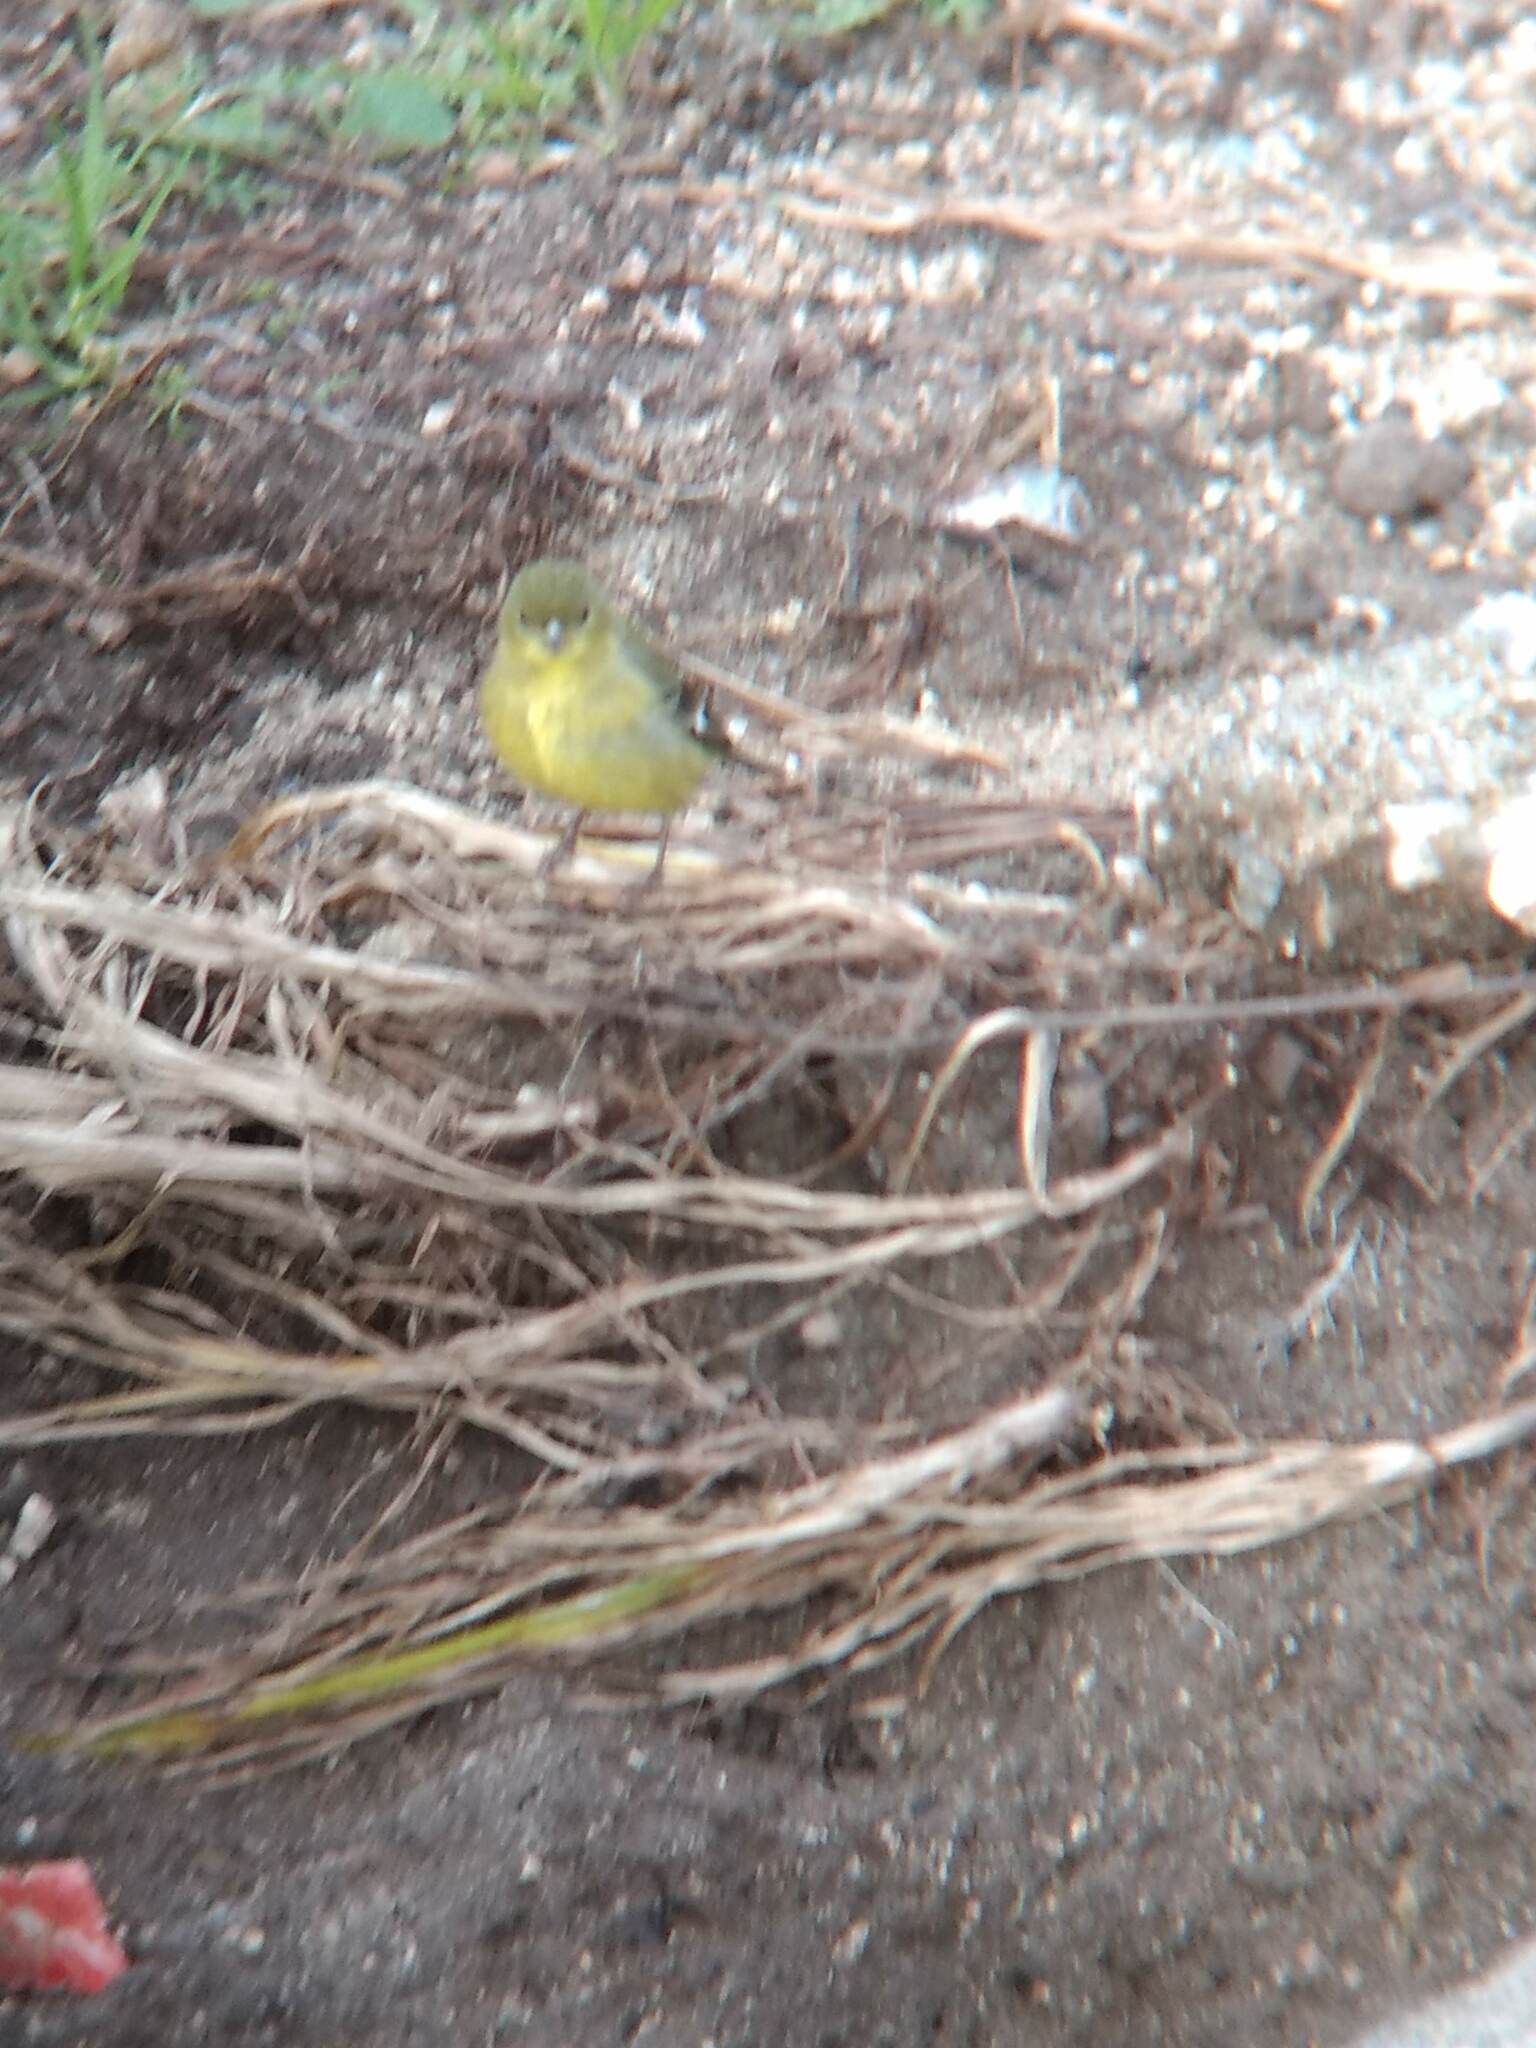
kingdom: Animalia
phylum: Chordata
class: Aves
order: Passeriformes
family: Fringillidae
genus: Spinus
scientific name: Spinus psaltria
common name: Lesser goldfinch
